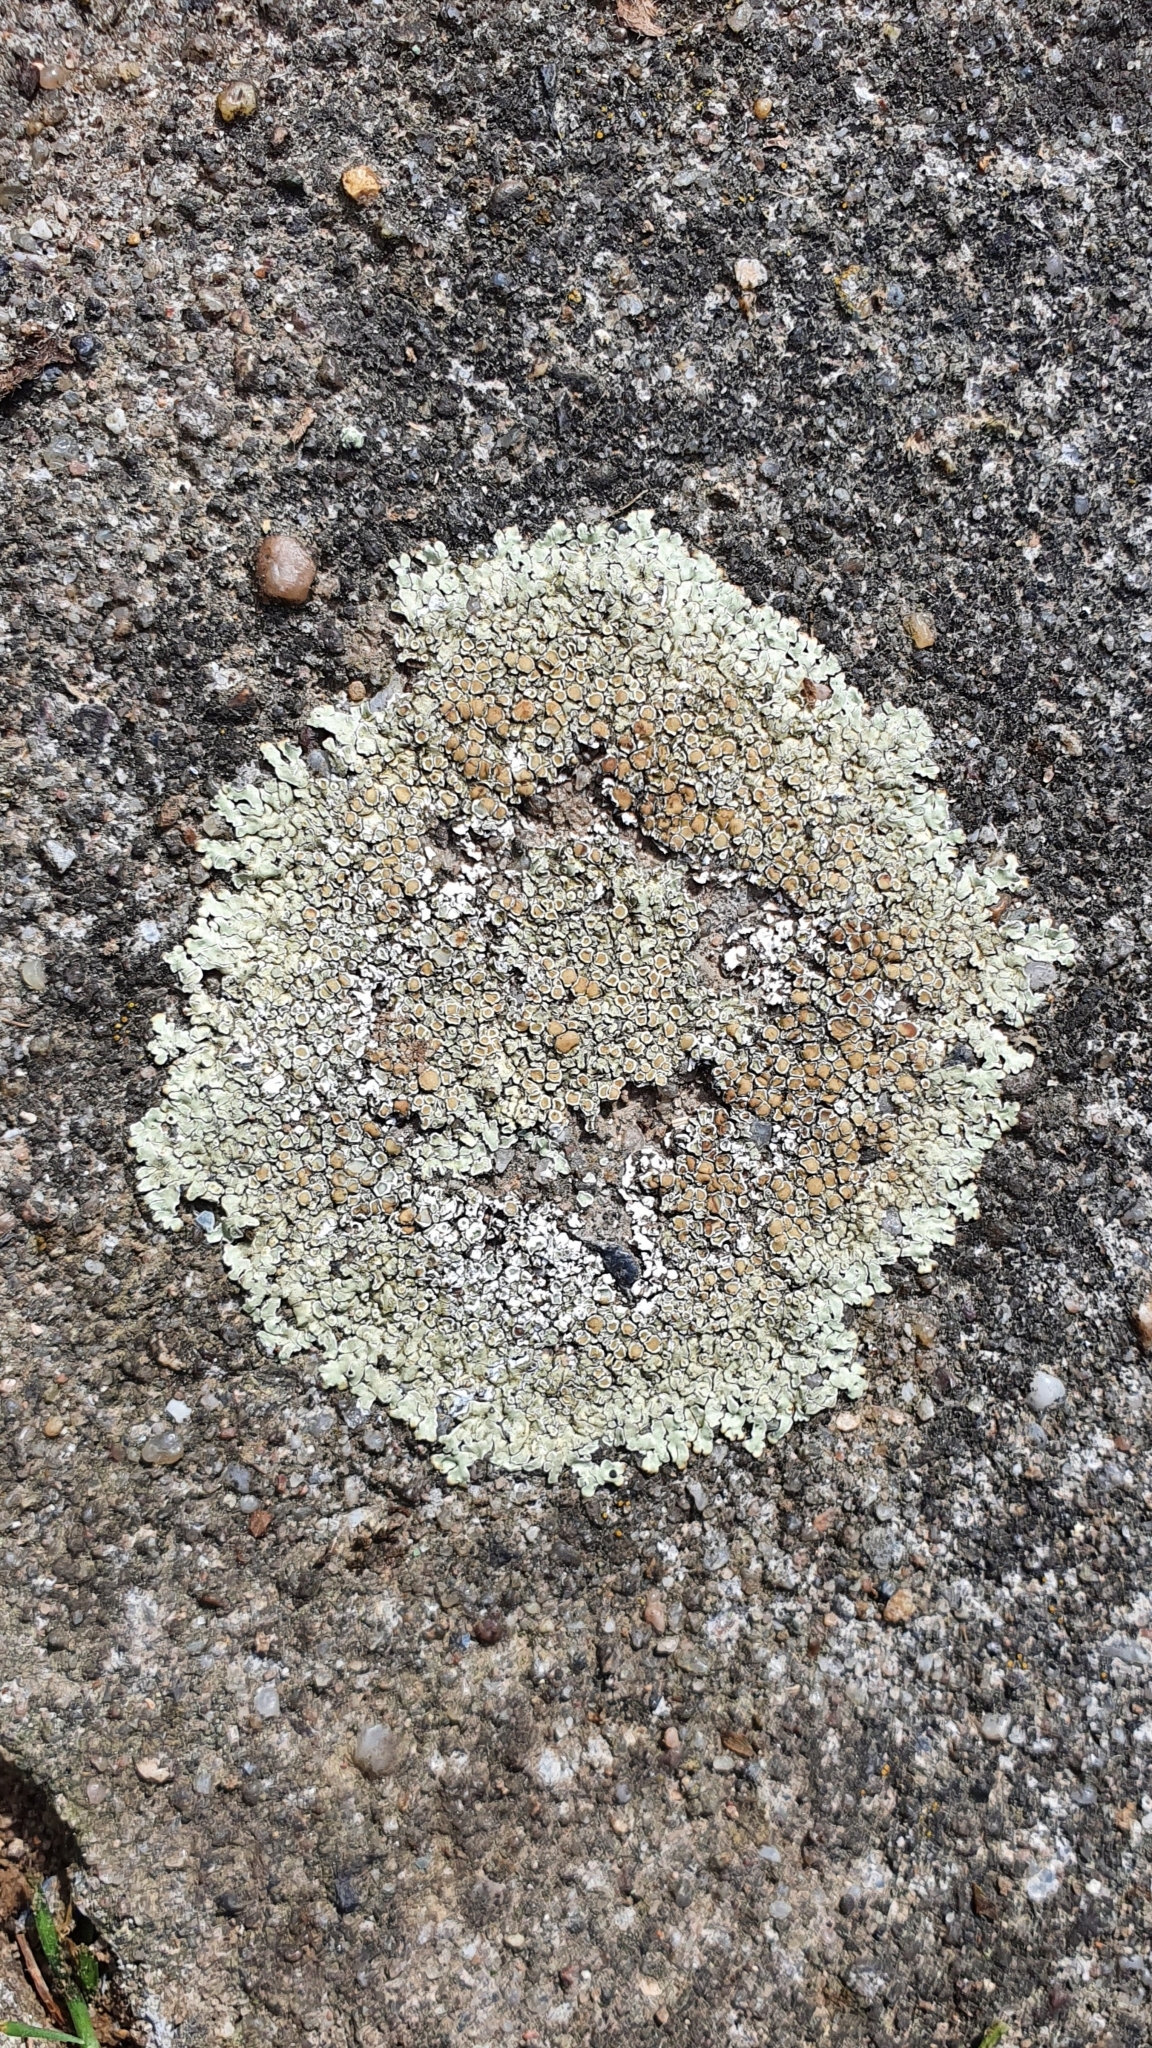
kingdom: Fungi
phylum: Ascomycota
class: Lecanoromycetes
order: Lecanorales
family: Lecanoraceae
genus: Protoparmeliopsis
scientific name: Protoparmeliopsis muralis
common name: Stonewall rim lichen
